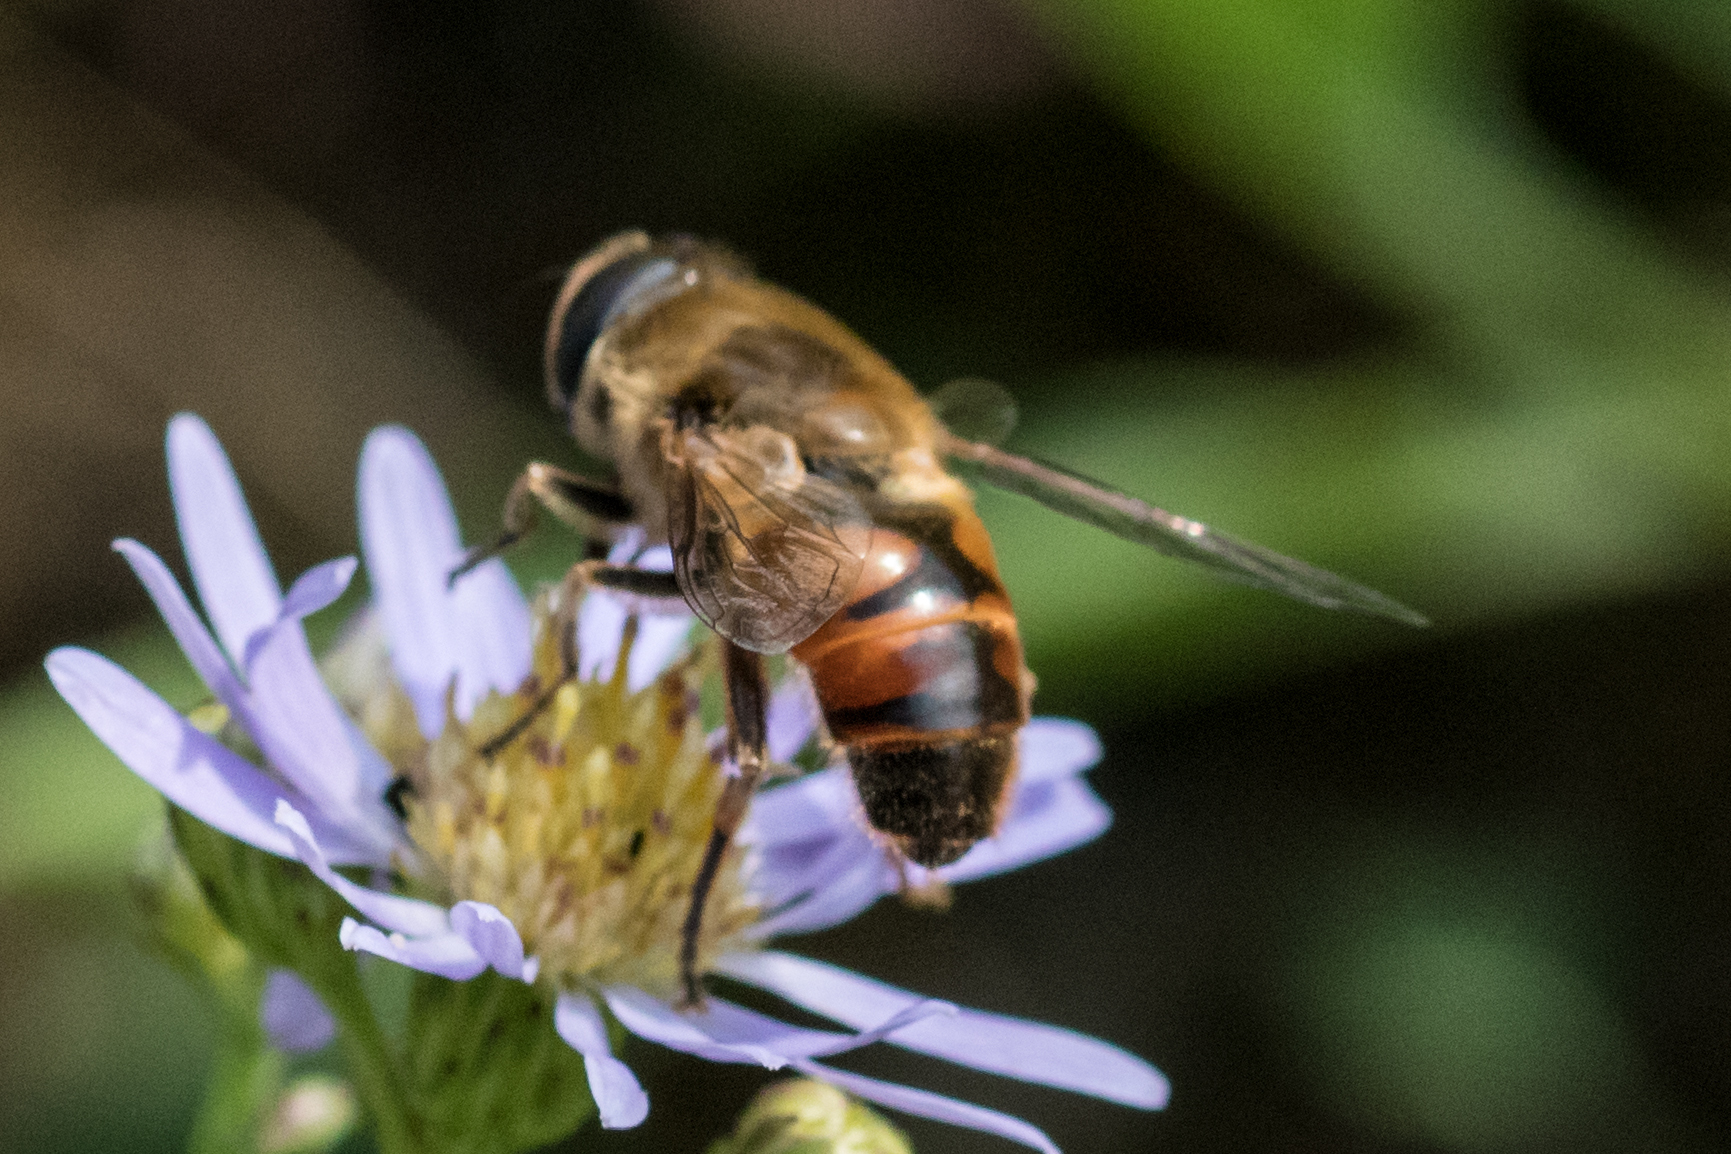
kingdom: Animalia
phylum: Arthropoda
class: Insecta
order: Diptera
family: Syrphidae
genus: Eristalis
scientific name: Eristalis tenax
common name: Drone fly
